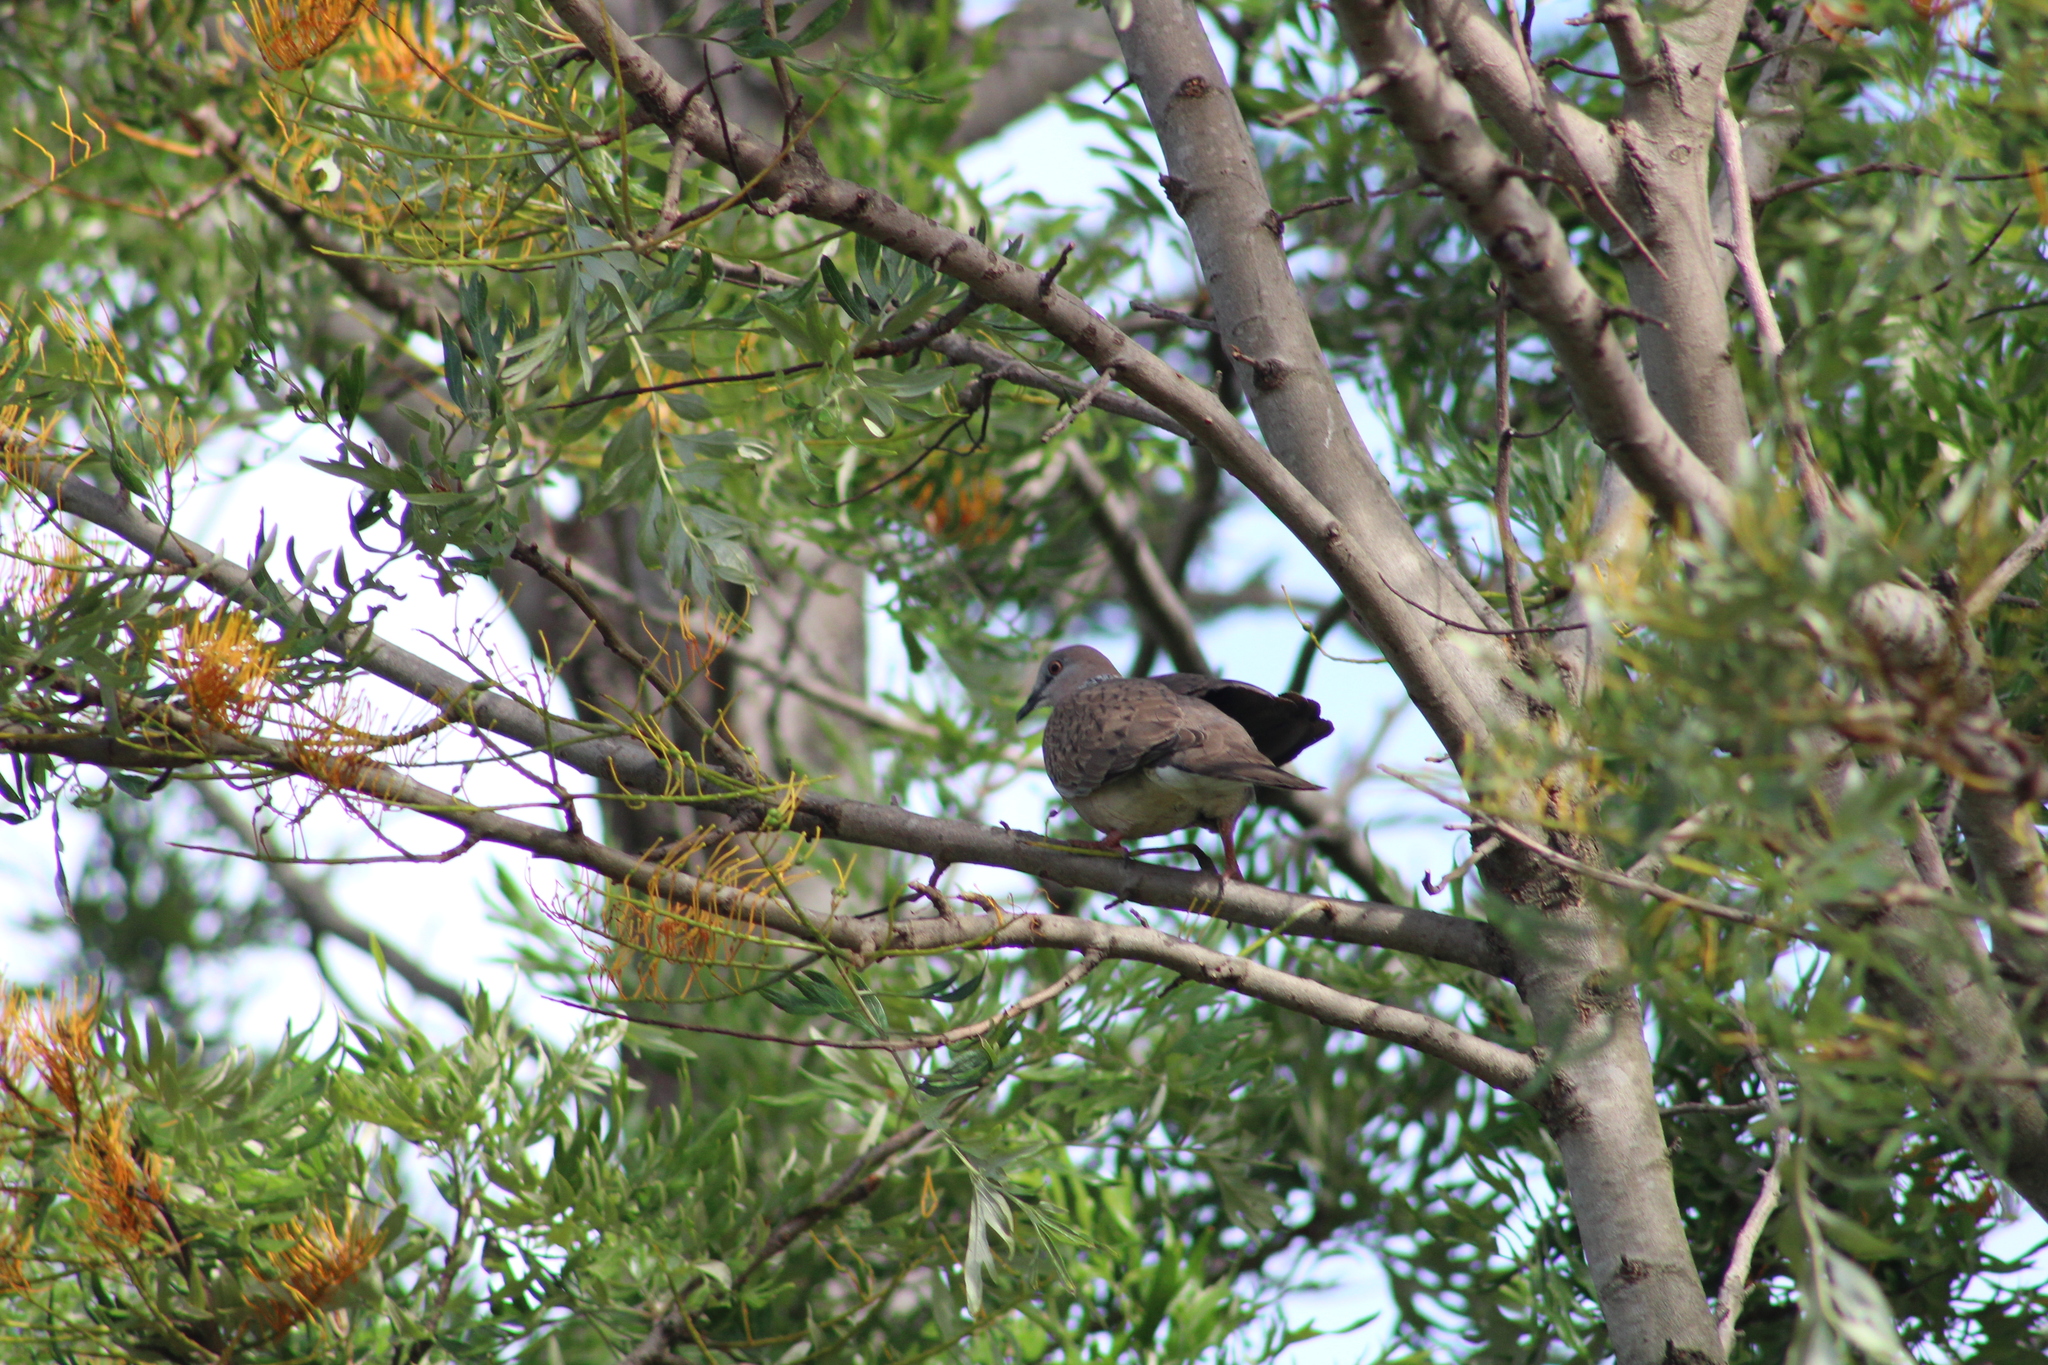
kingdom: Animalia
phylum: Chordata
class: Aves
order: Columbiformes
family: Columbidae
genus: Spilopelia
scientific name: Spilopelia chinensis
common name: Spotted dove
